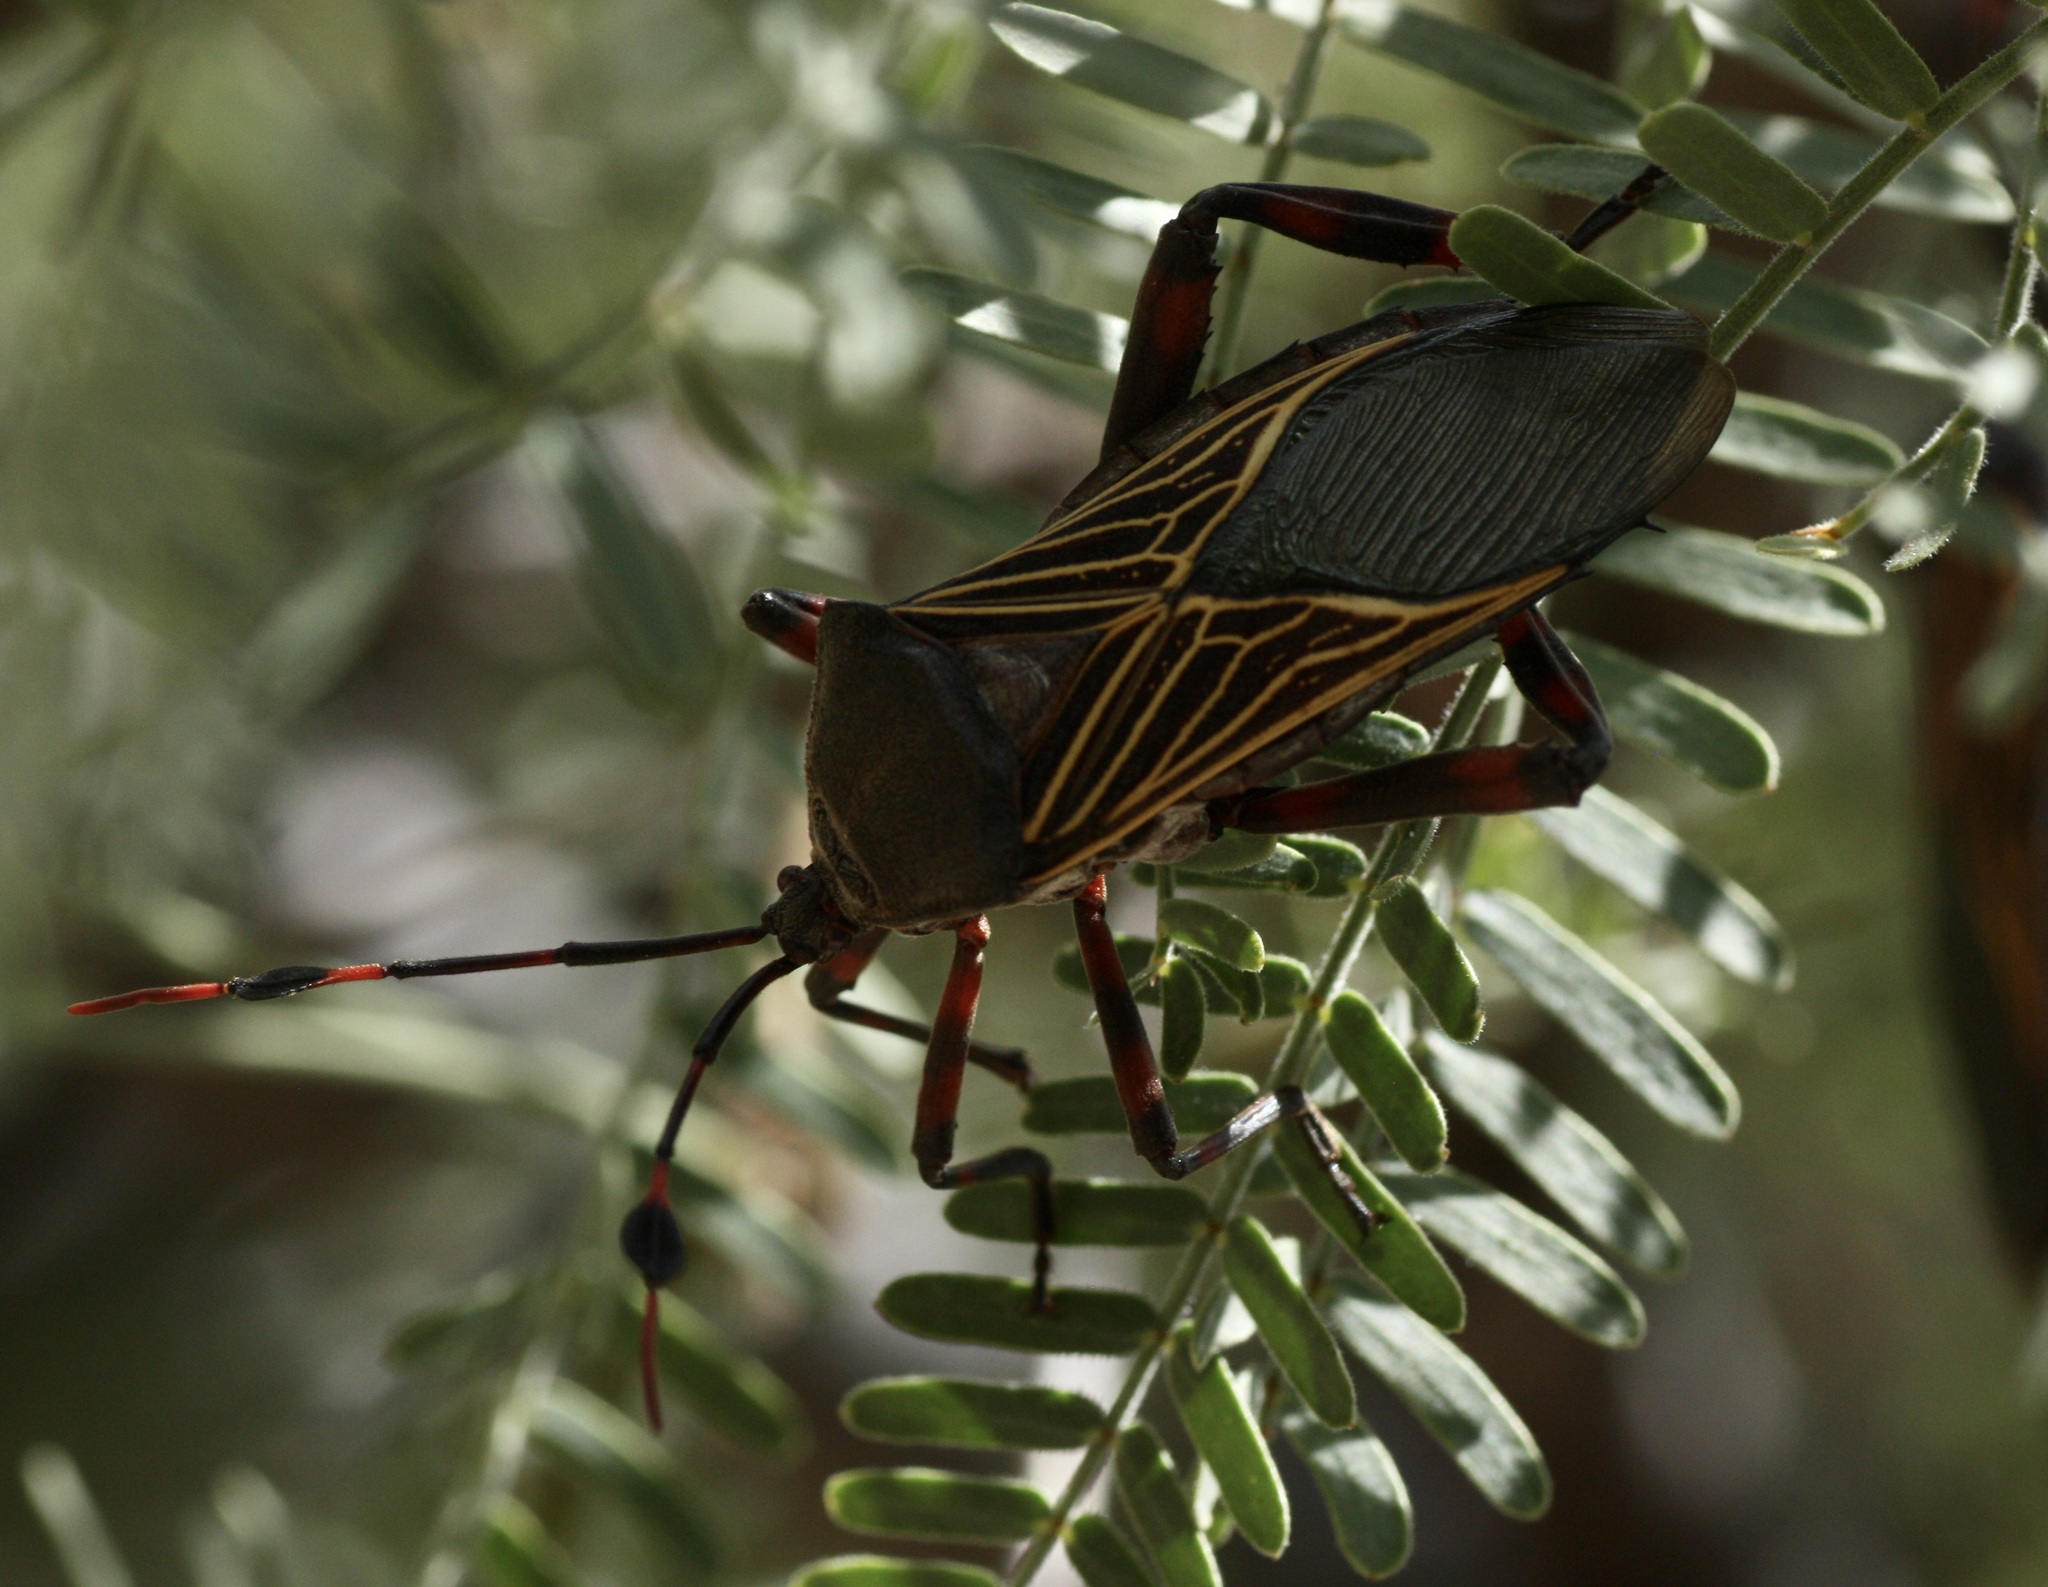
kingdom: Animalia
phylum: Arthropoda
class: Insecta
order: Hemiptera
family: Coreidae
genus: Thasus
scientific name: Thasus neocalifornicus
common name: Giant mesquite bug
